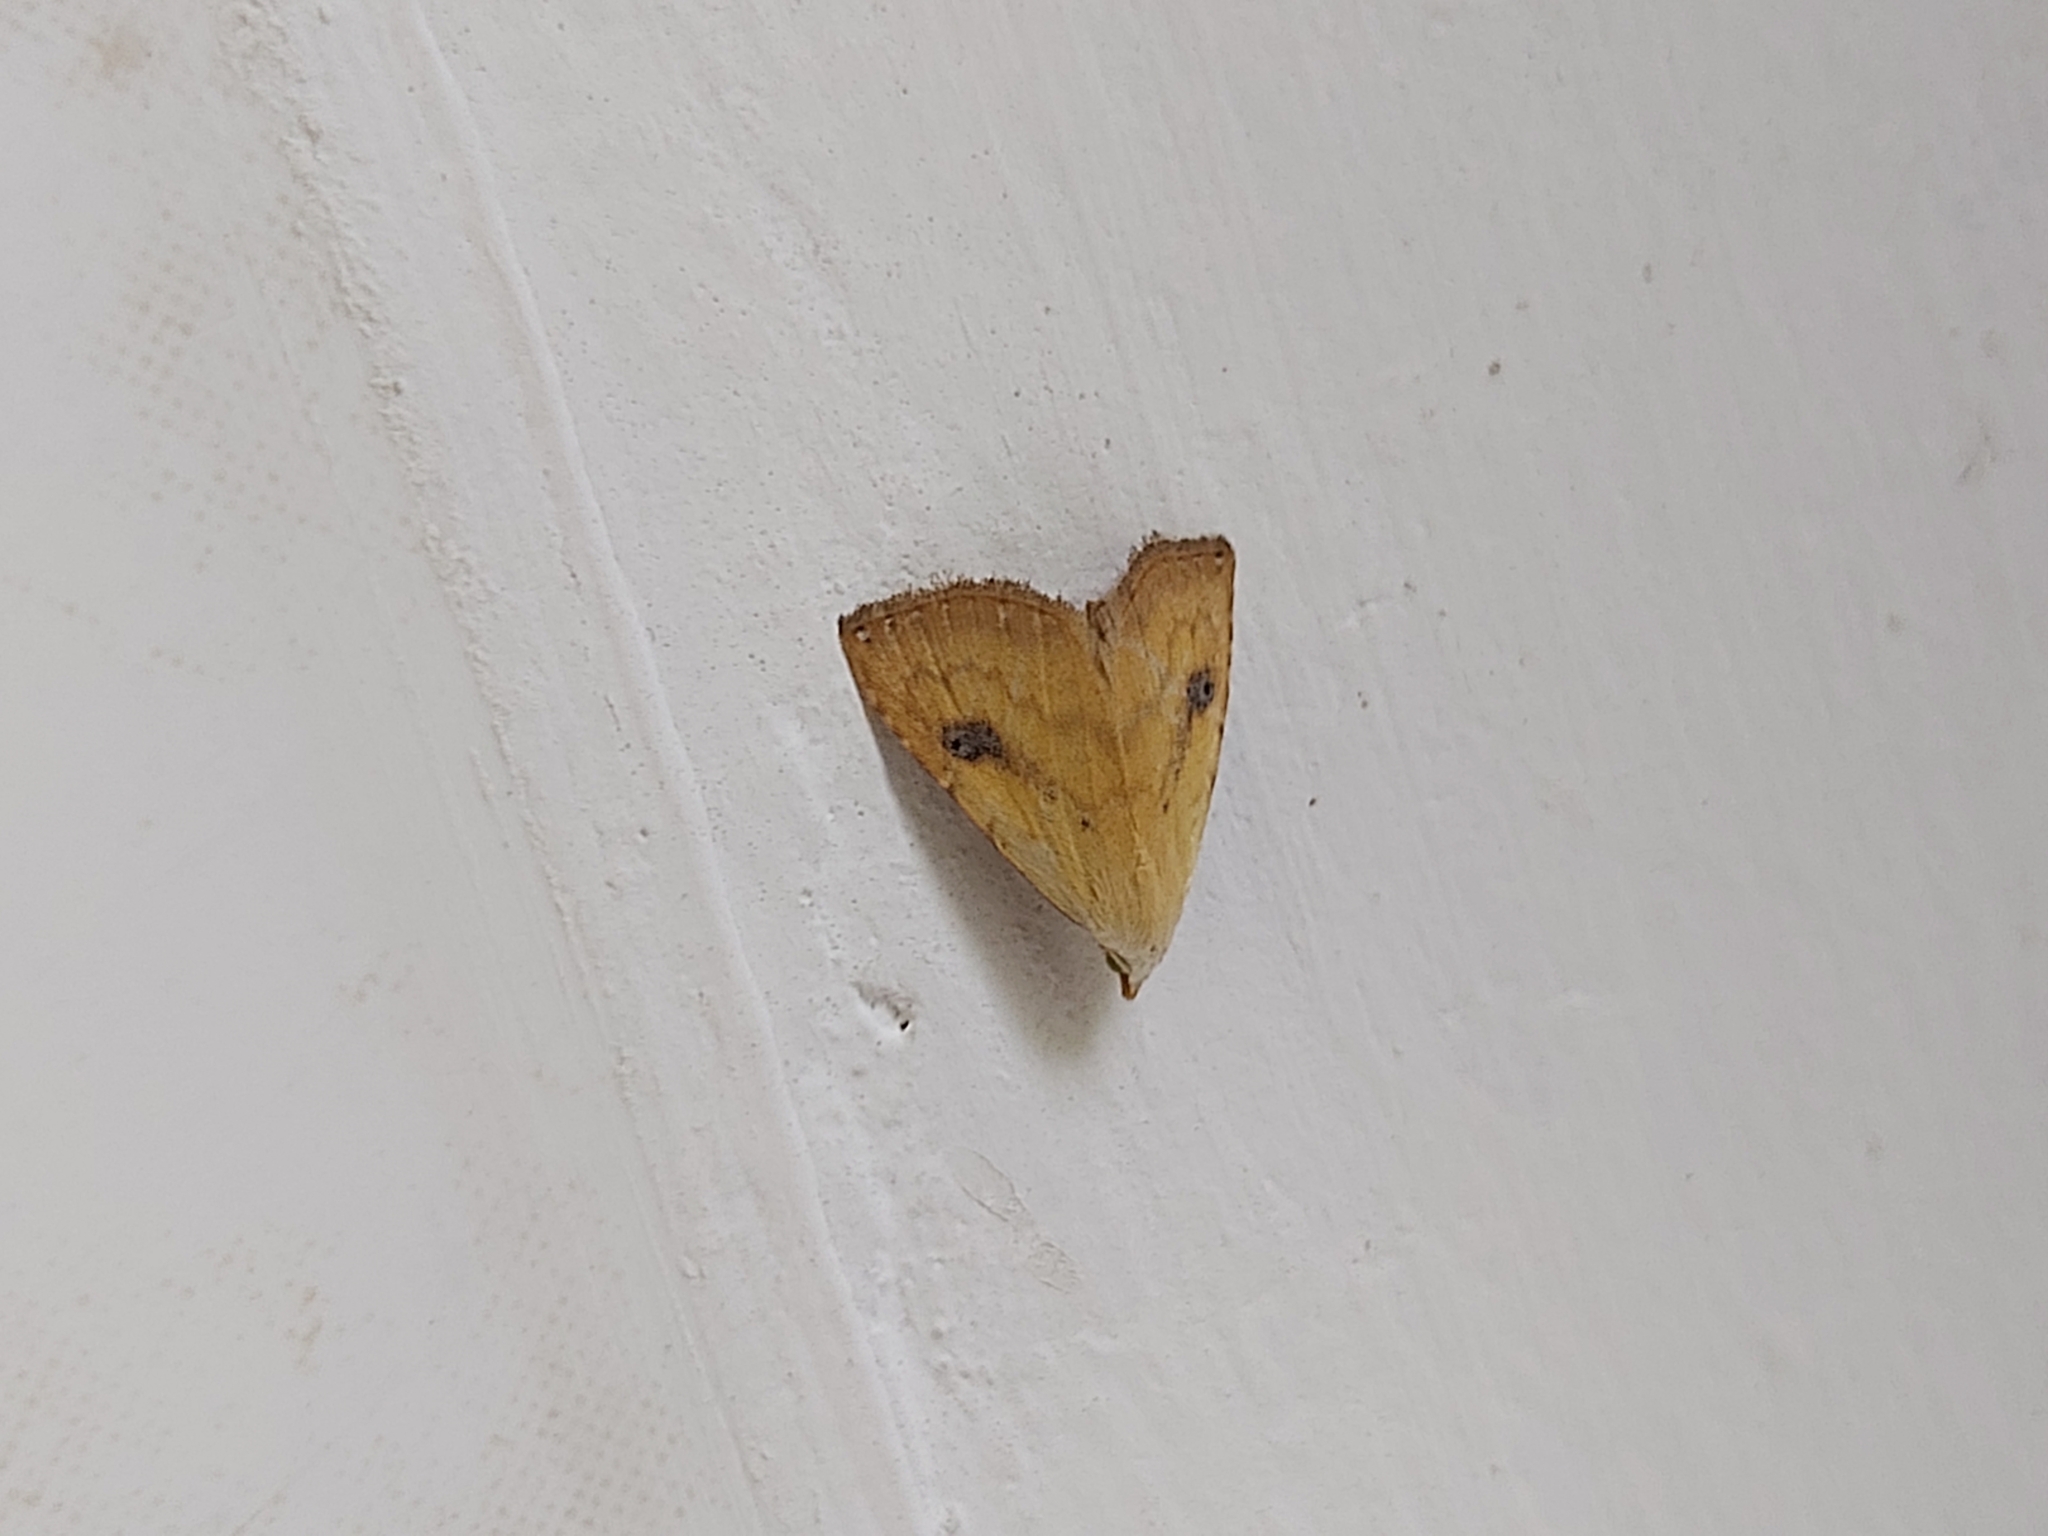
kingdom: Animalia
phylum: Arthropoda
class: Insecta
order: Lepidoptera
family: Erebidae
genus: Rivula
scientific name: Rivula sericealis
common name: Straw dot
